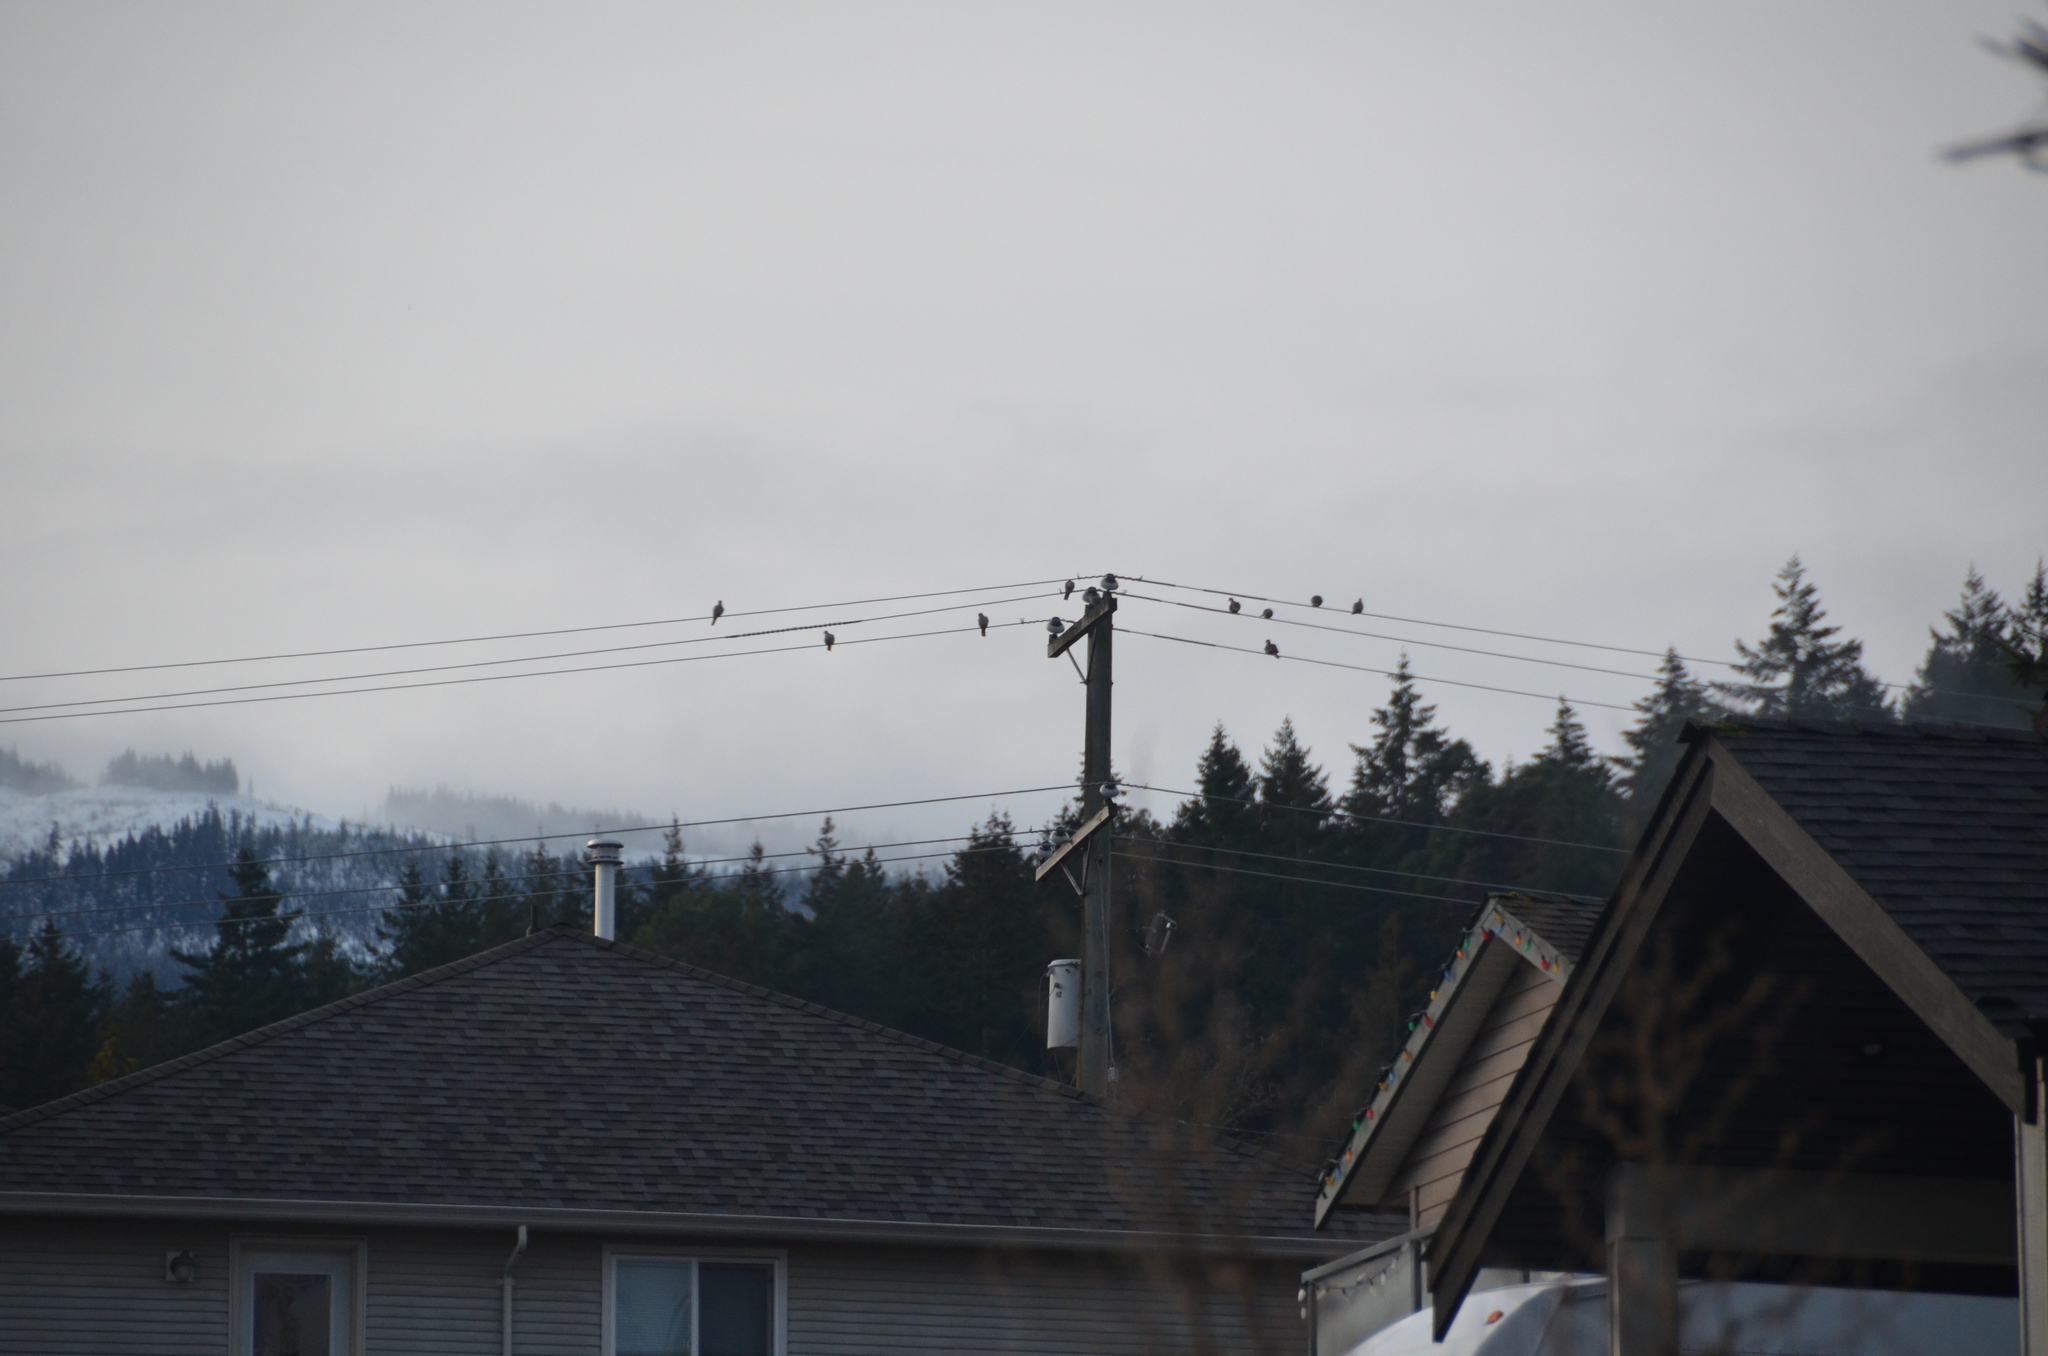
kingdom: Animalia
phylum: Chordata
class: Aves
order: Columbiformes
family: Columbidae
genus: Streptopelia
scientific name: Streptopelia decaocto
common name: Eurasian collared dove
